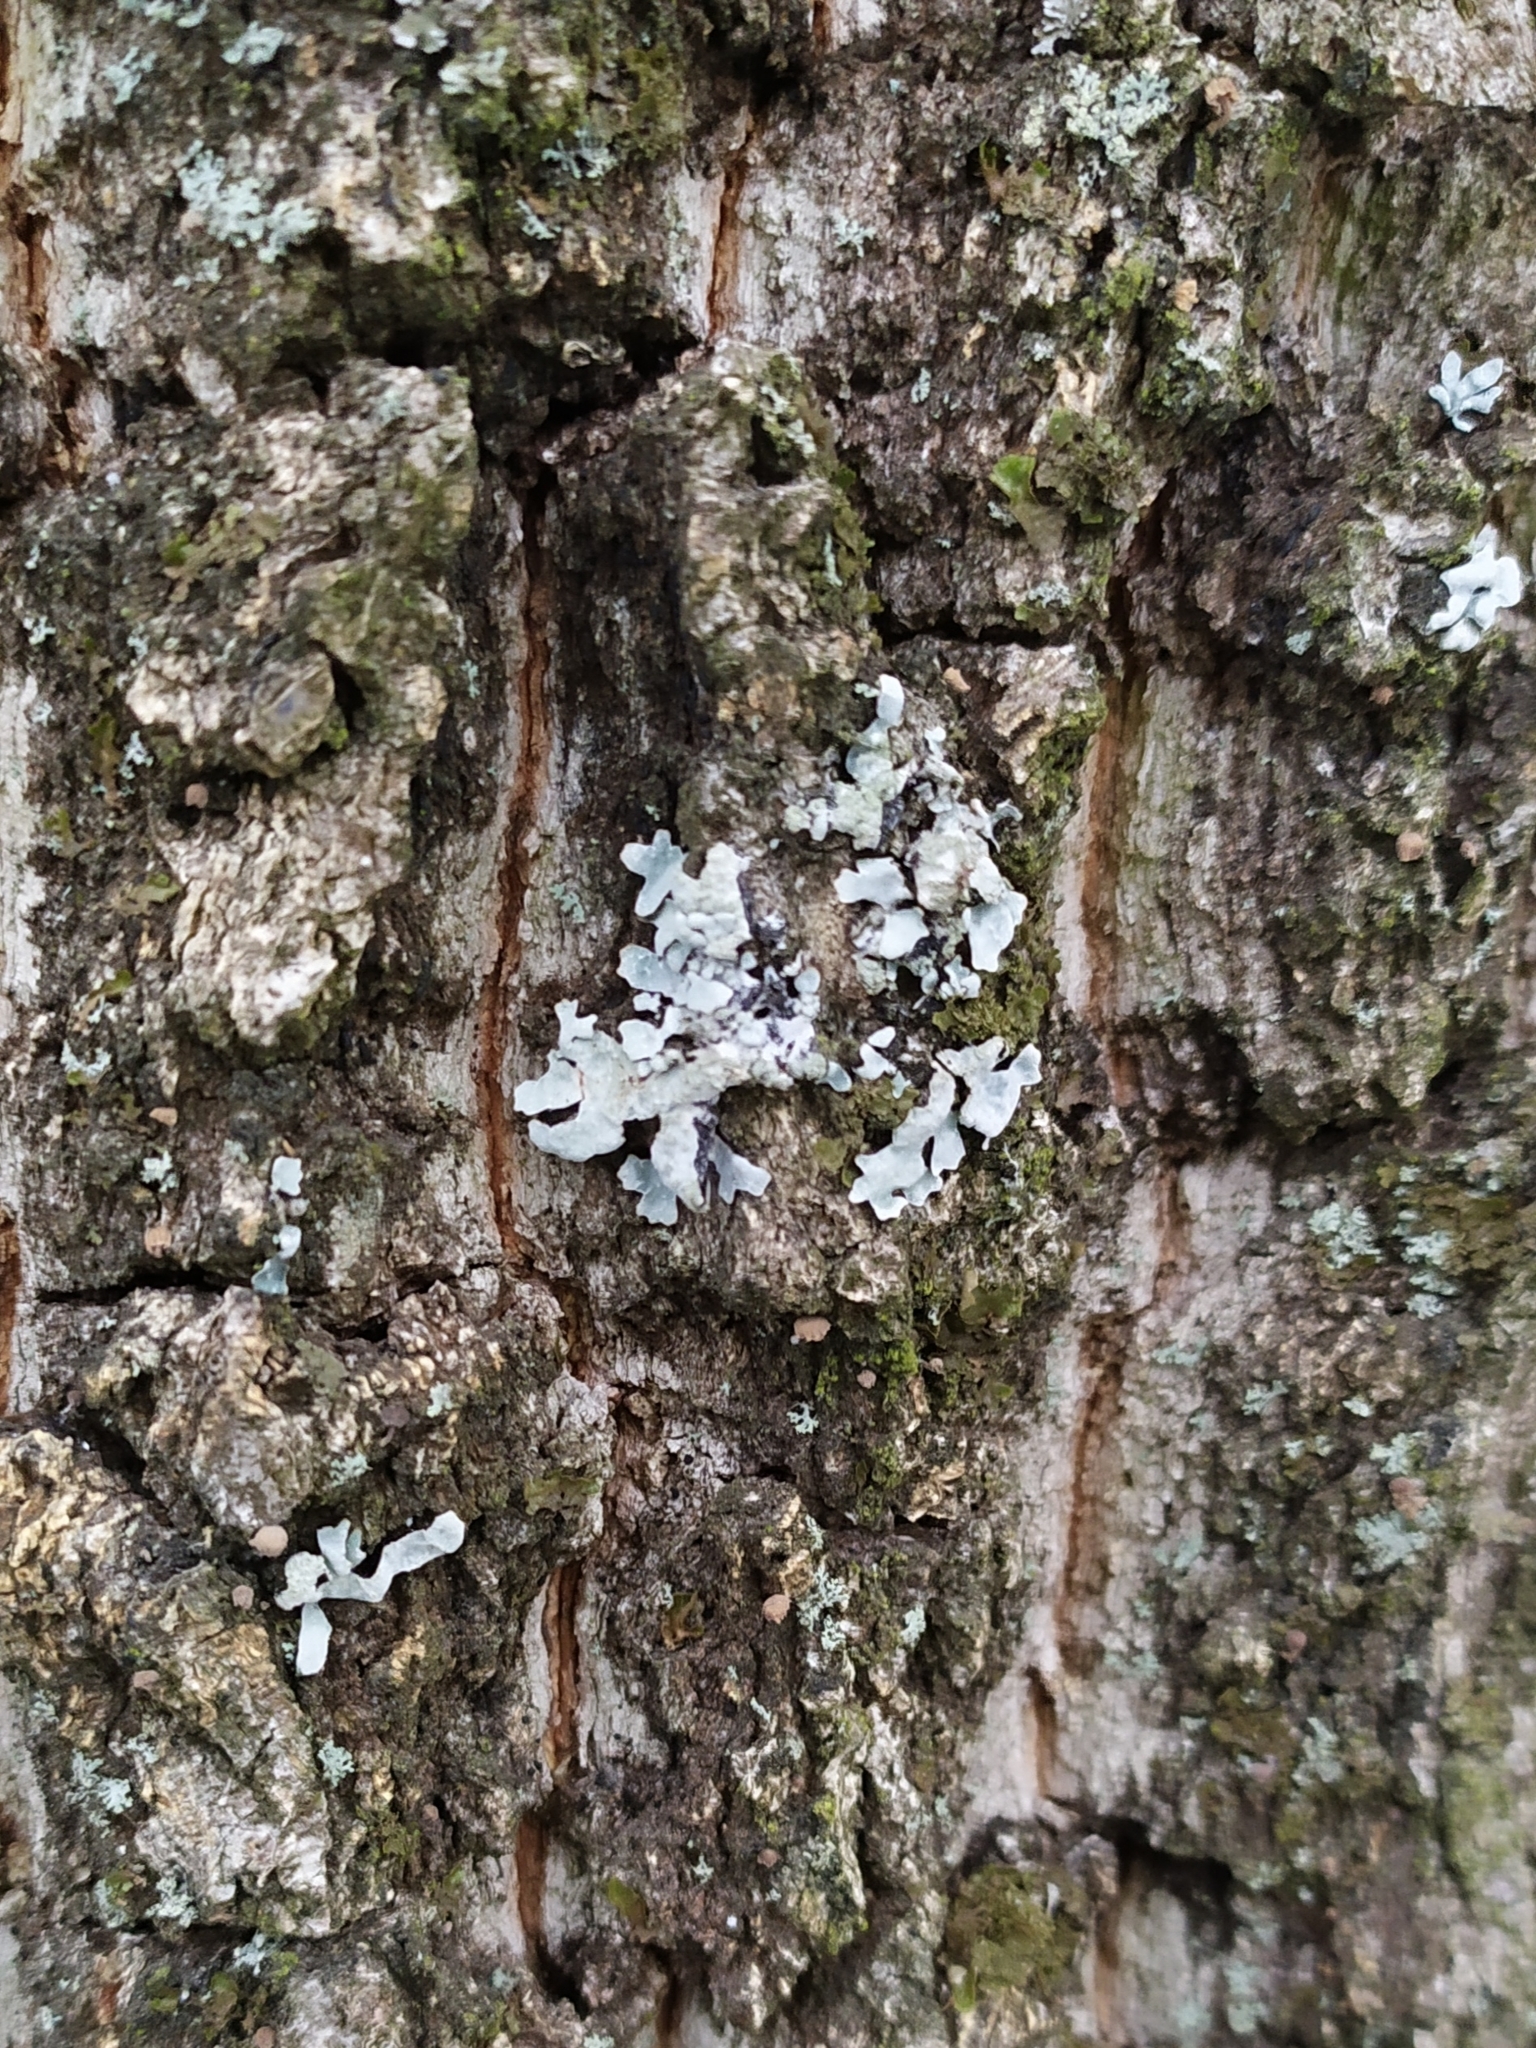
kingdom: Fungi
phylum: Ascomycota
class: Lecanoromycetes
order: Lecanorales
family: Parmeliaceae
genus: Parmelia
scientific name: Parmelia sulcata
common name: Netted shield lichen
